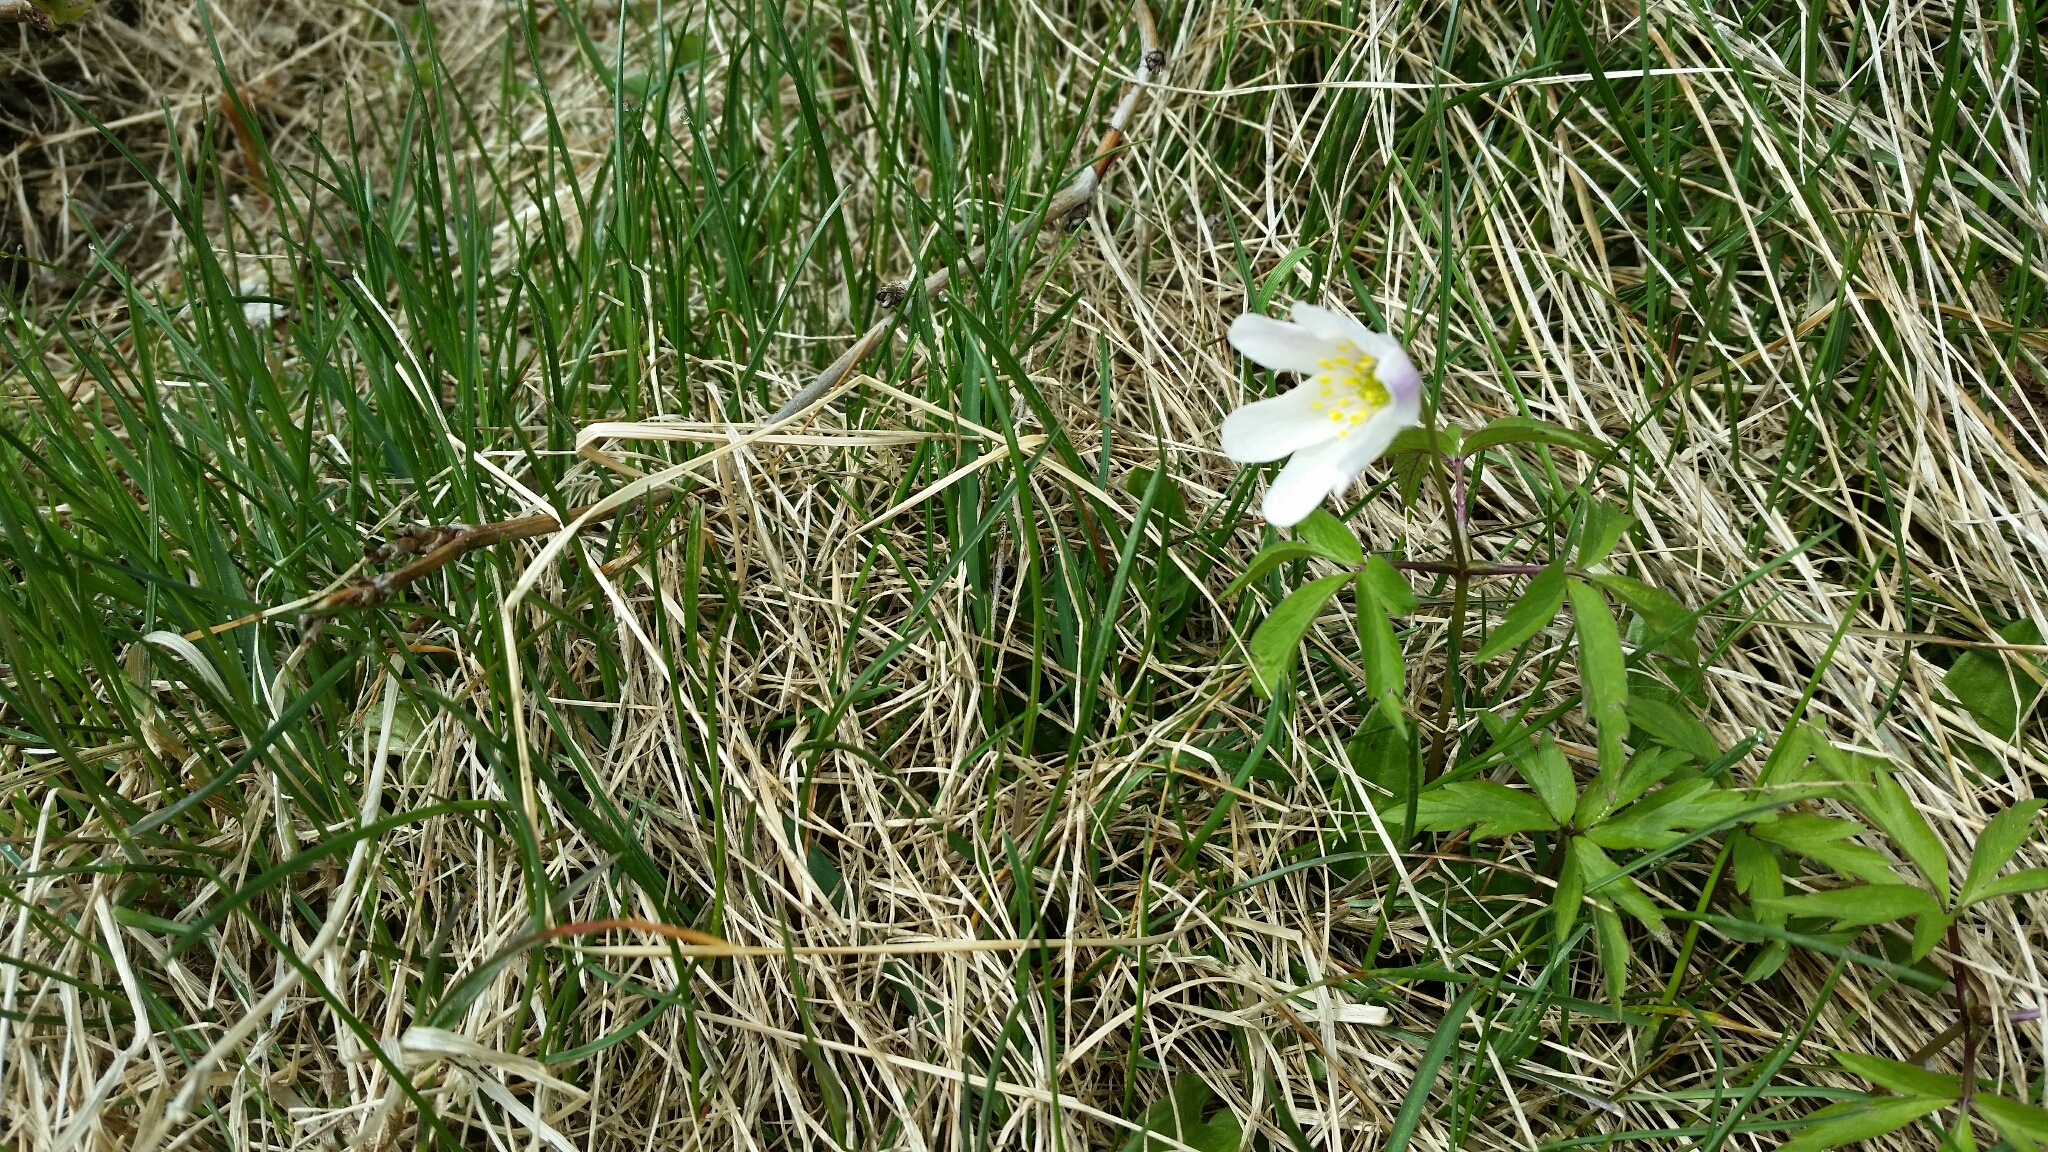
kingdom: Plantae
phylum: Tracheophyta
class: Magnoliopsida
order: Ranunculales
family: Ranunculaceae
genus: Anemone
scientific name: Anemone nemorosa
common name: Wood anemone
